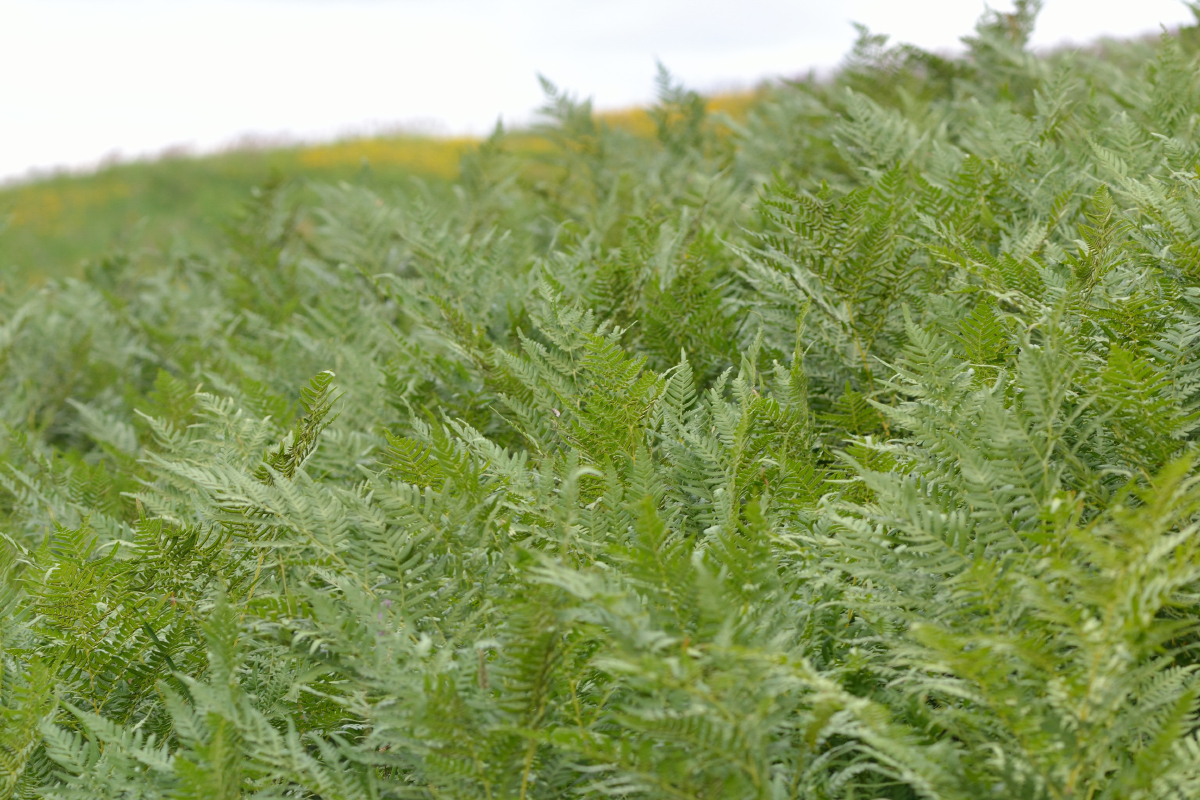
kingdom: Plantae
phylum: Tracheophyta
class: Polypodiopsida
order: Polypodiales
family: Dennstaedtiaceae
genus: Pteridium
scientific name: Pteridium aquilinum
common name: Bracken
